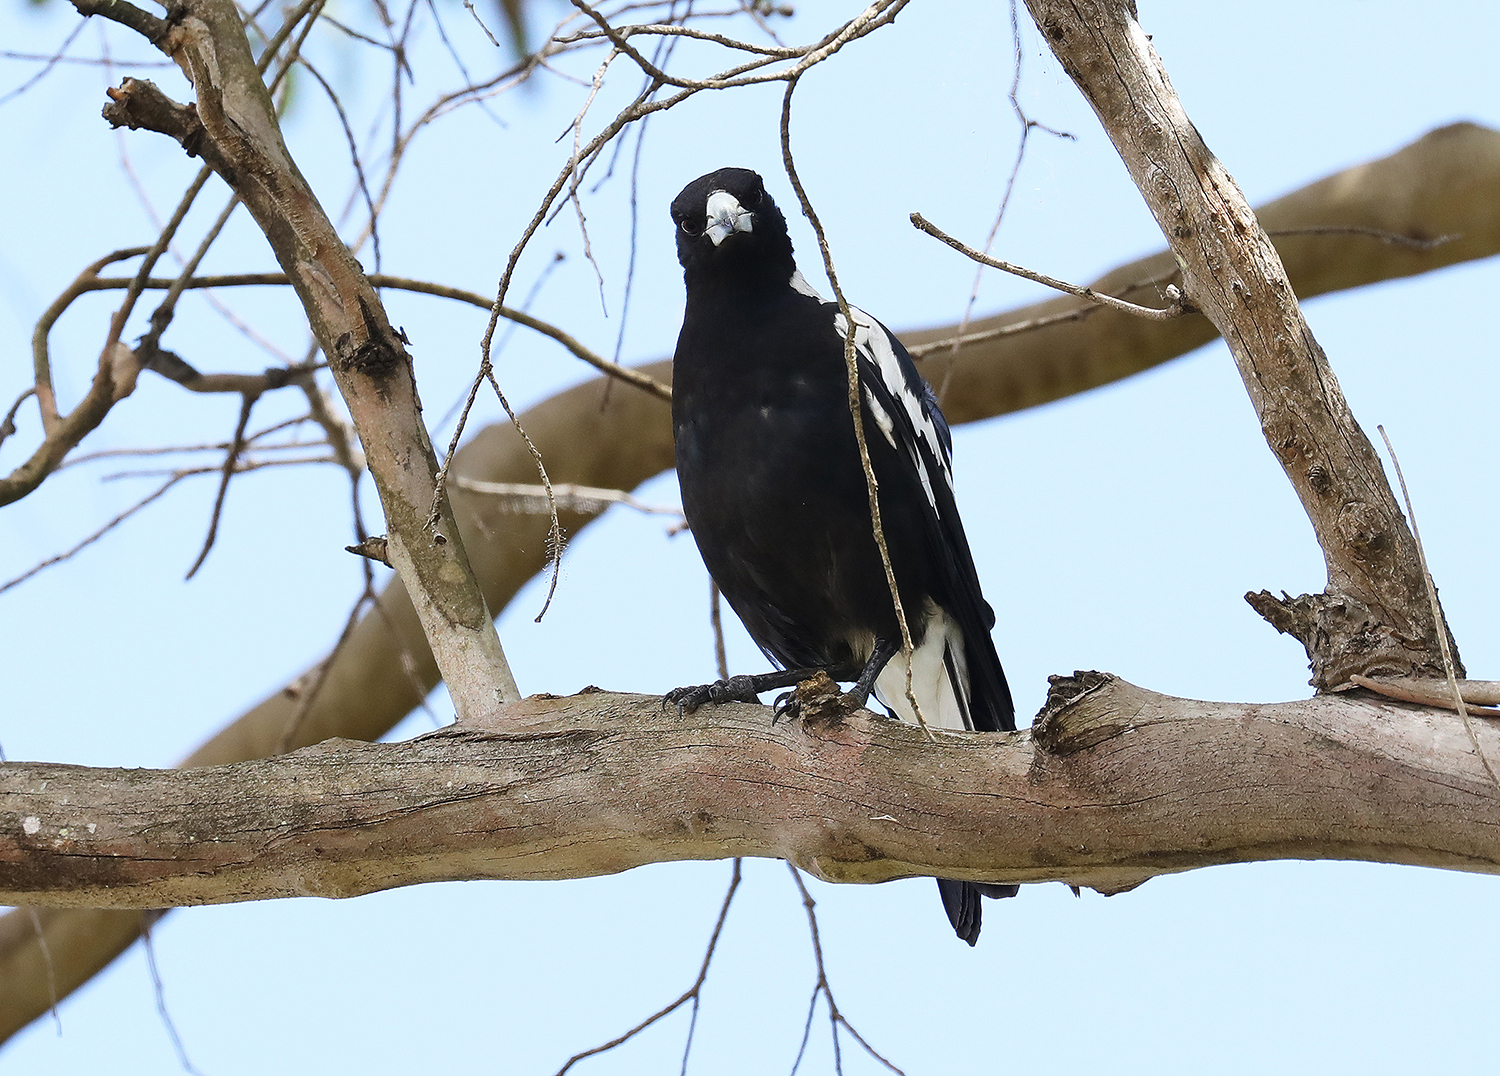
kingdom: Animalia
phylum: Chordata
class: Aves
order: Passeriformes
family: Cracticidae
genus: Gymnorhina
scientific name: Gymnorhina tibicen
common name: Australian magpie
